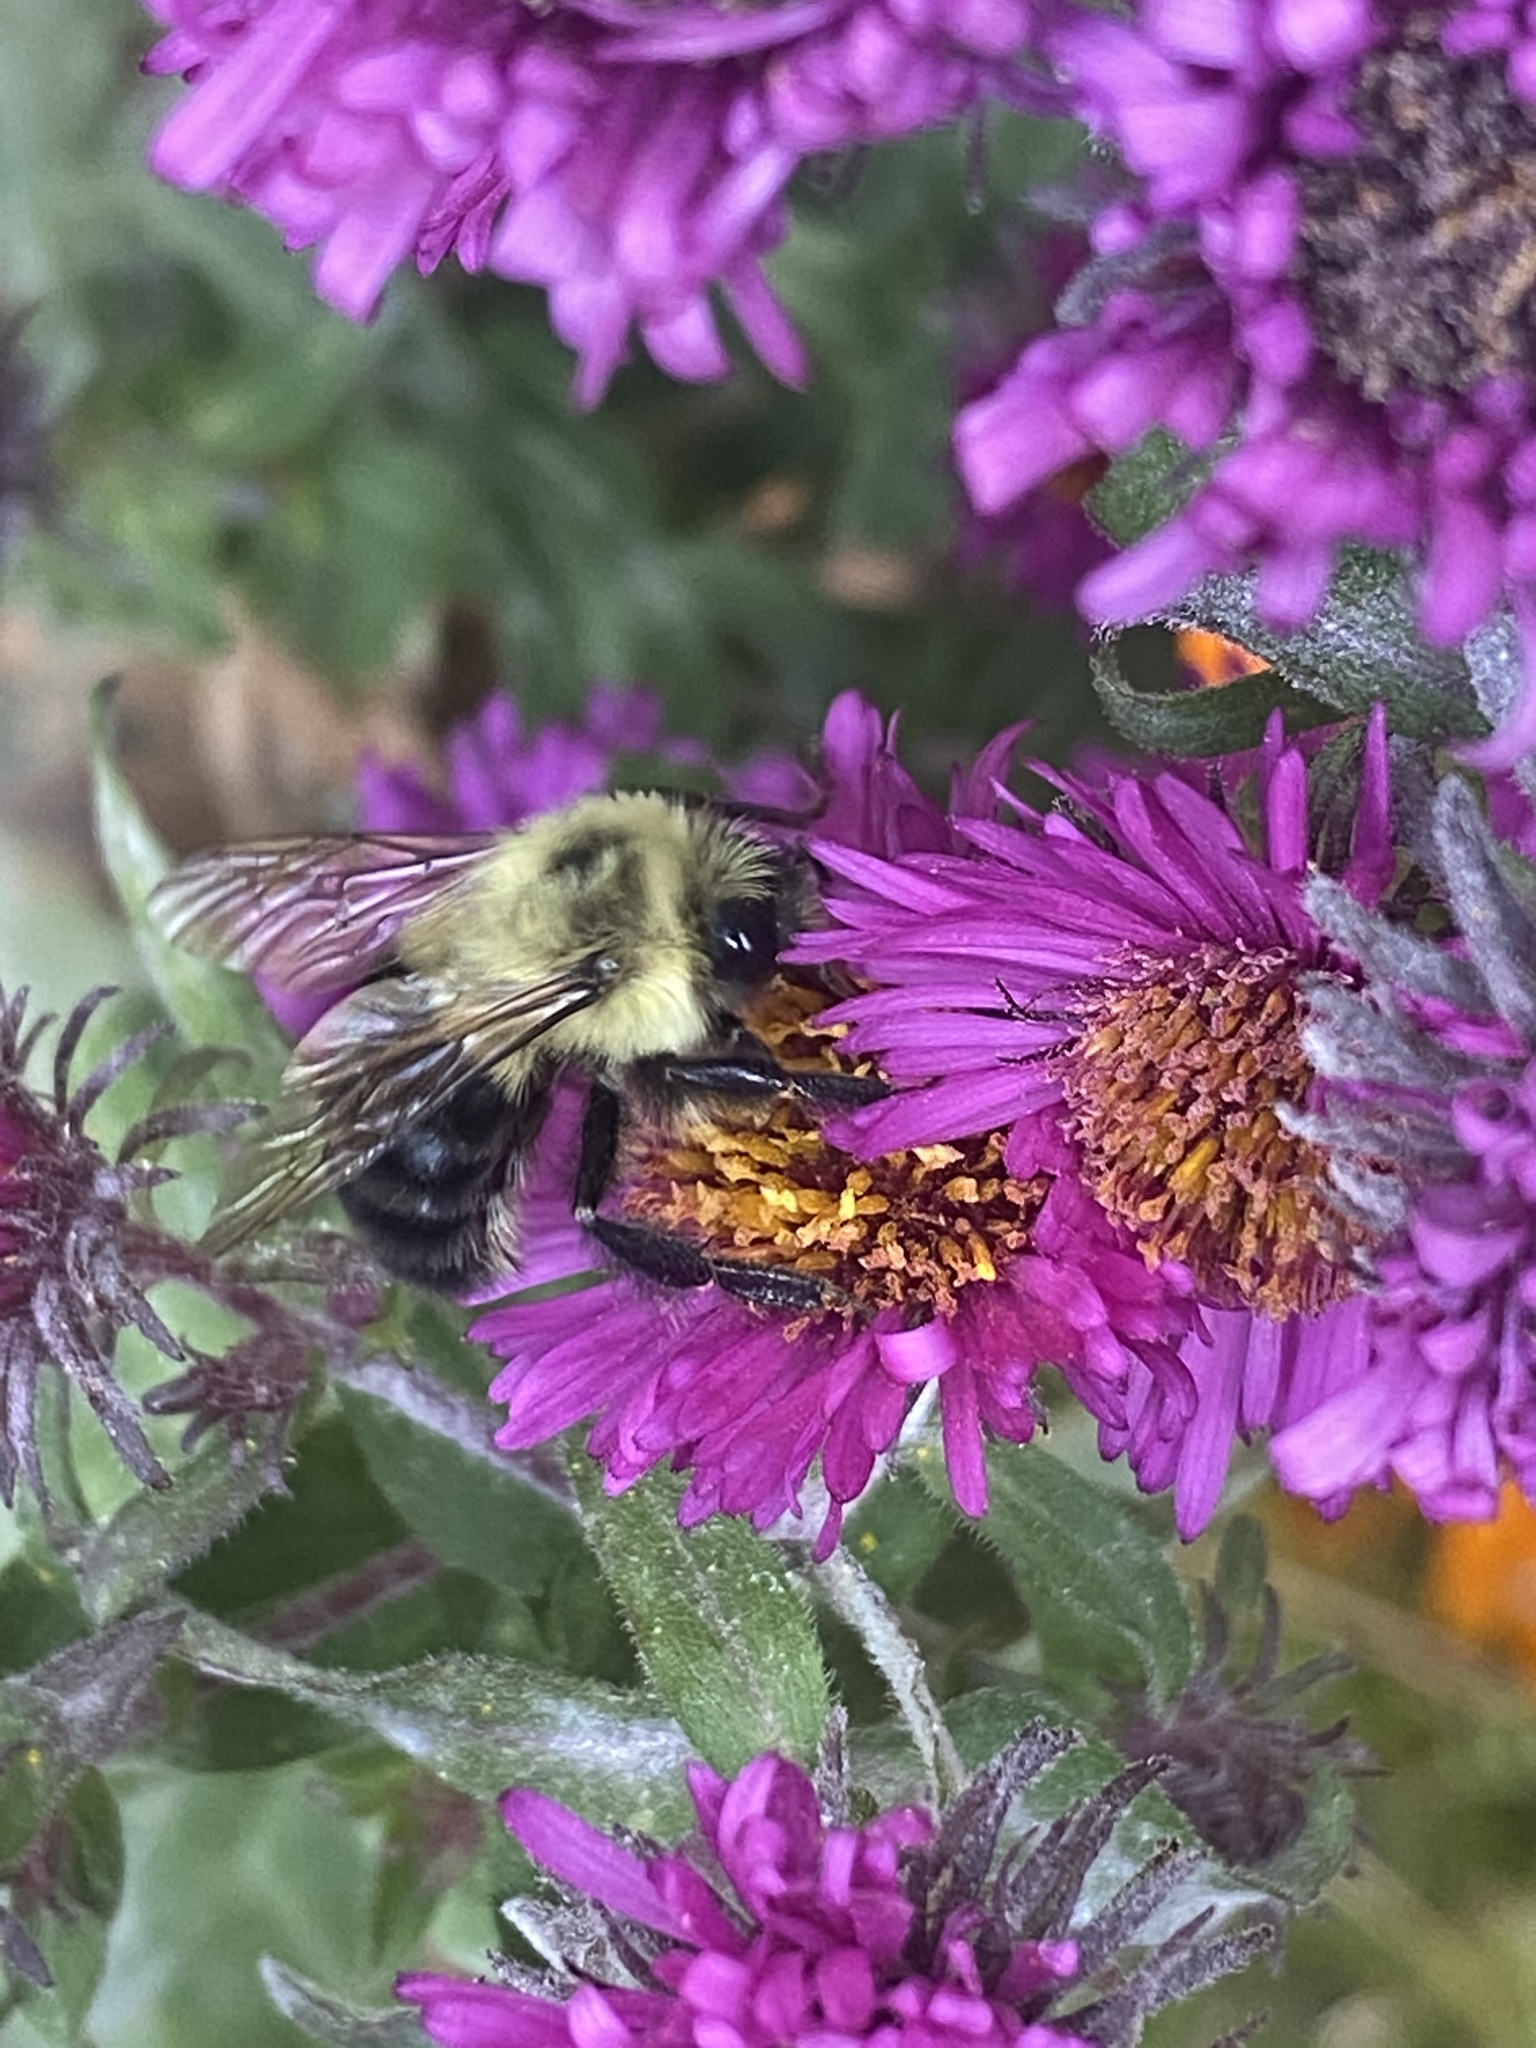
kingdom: Animalia
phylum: Arthropoda
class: Insecta
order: Hymenoptera
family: Apidae
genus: Bombus
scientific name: Bombus impatiens
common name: Common eastern bumble bee
